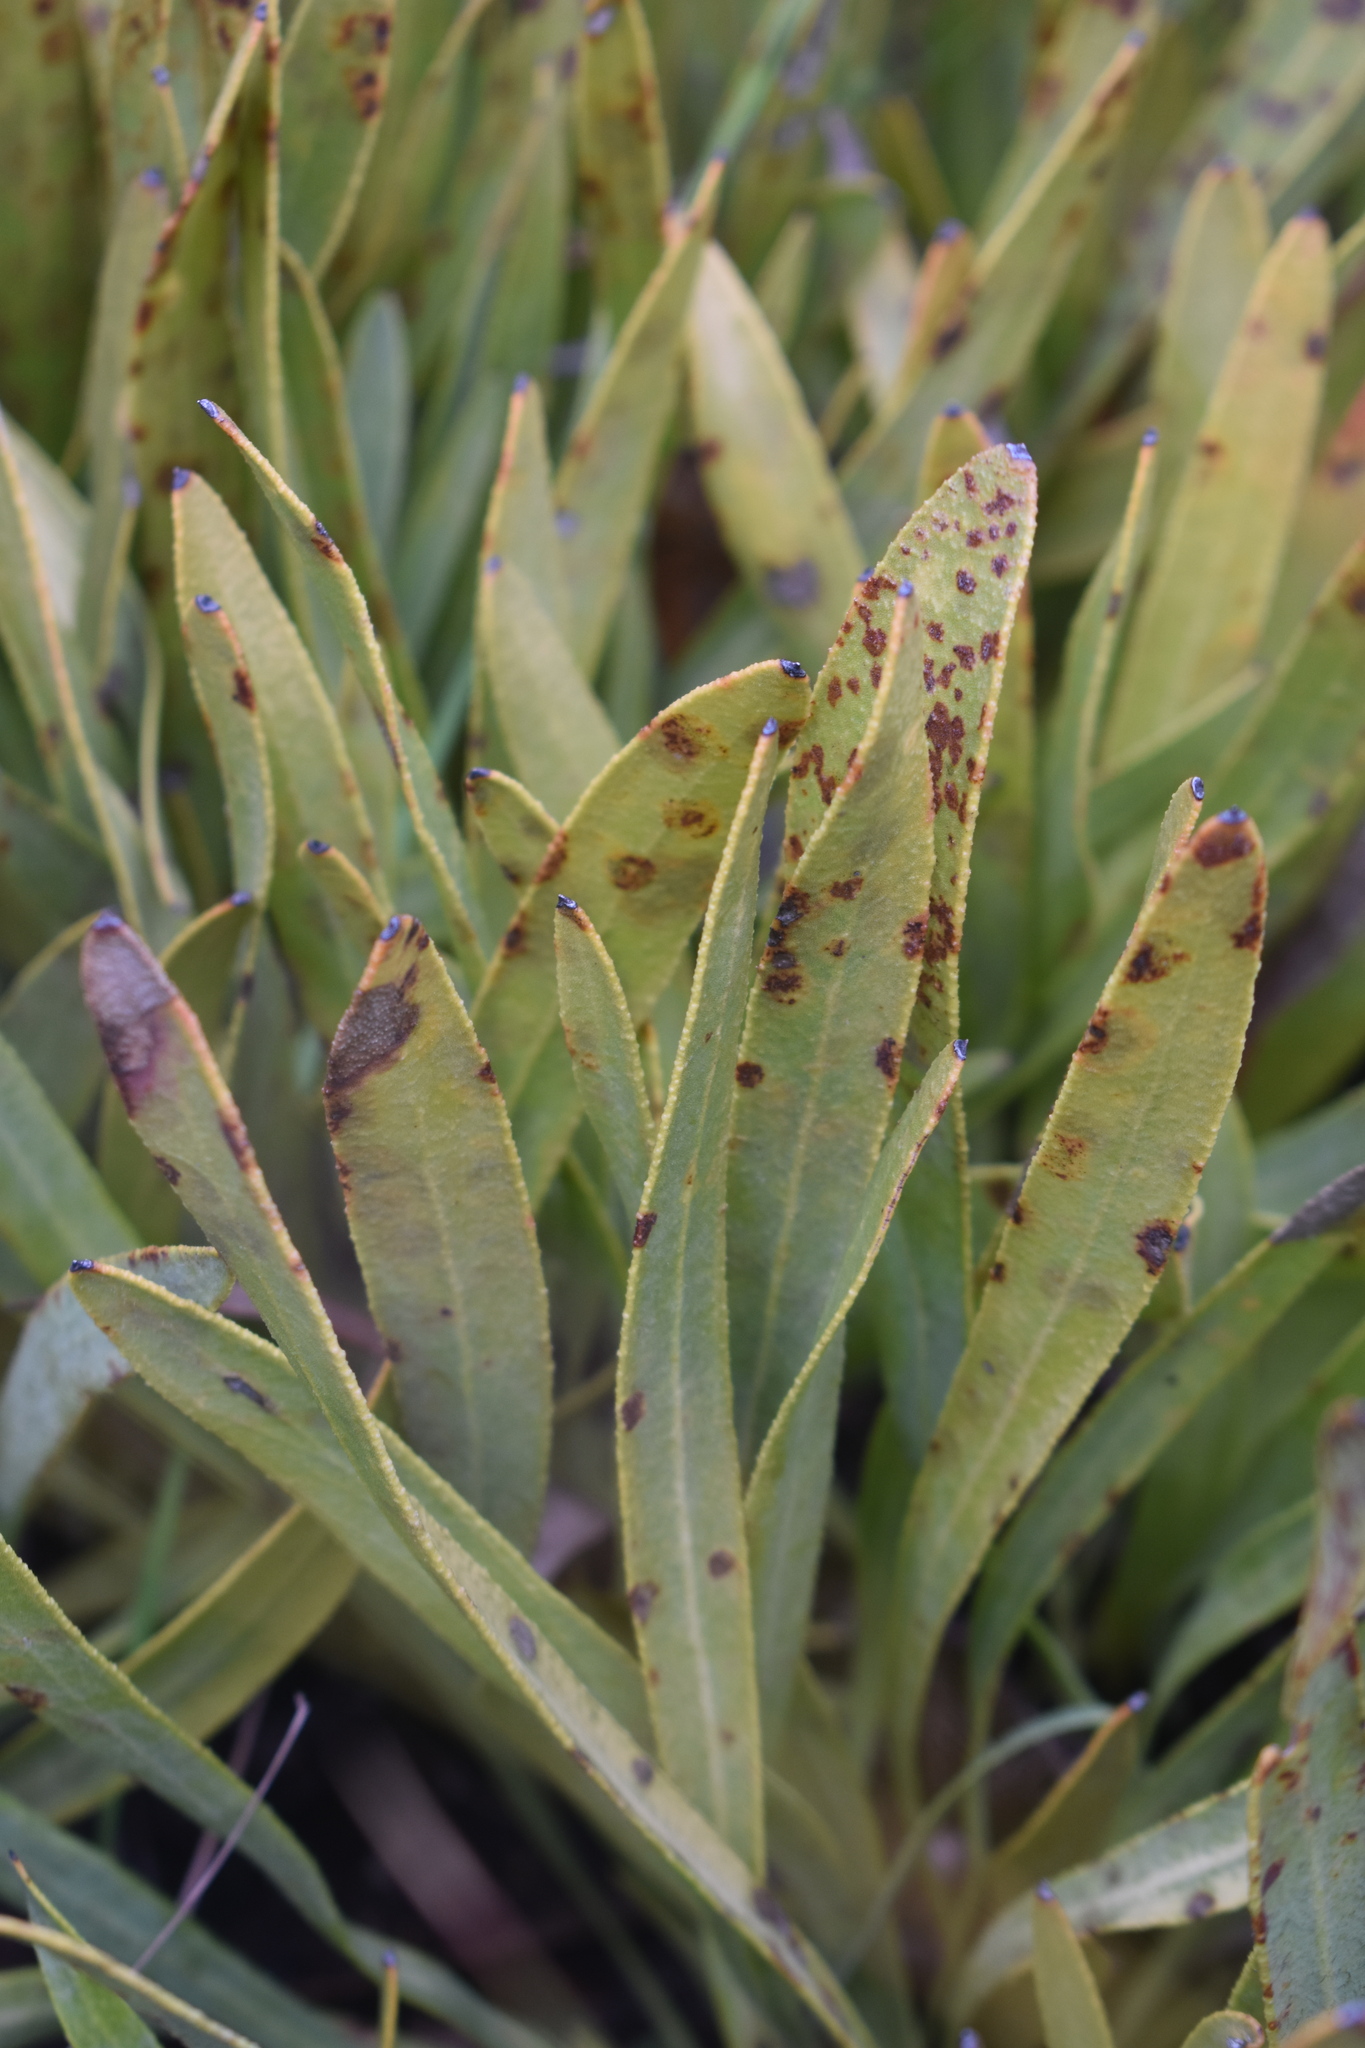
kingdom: Plantae
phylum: Tracheophyta
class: Magnoliopsida
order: Proteales
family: Proteaceae
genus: Protea
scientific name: Protea scabra
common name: Sandpaper-leaf sugarbush
